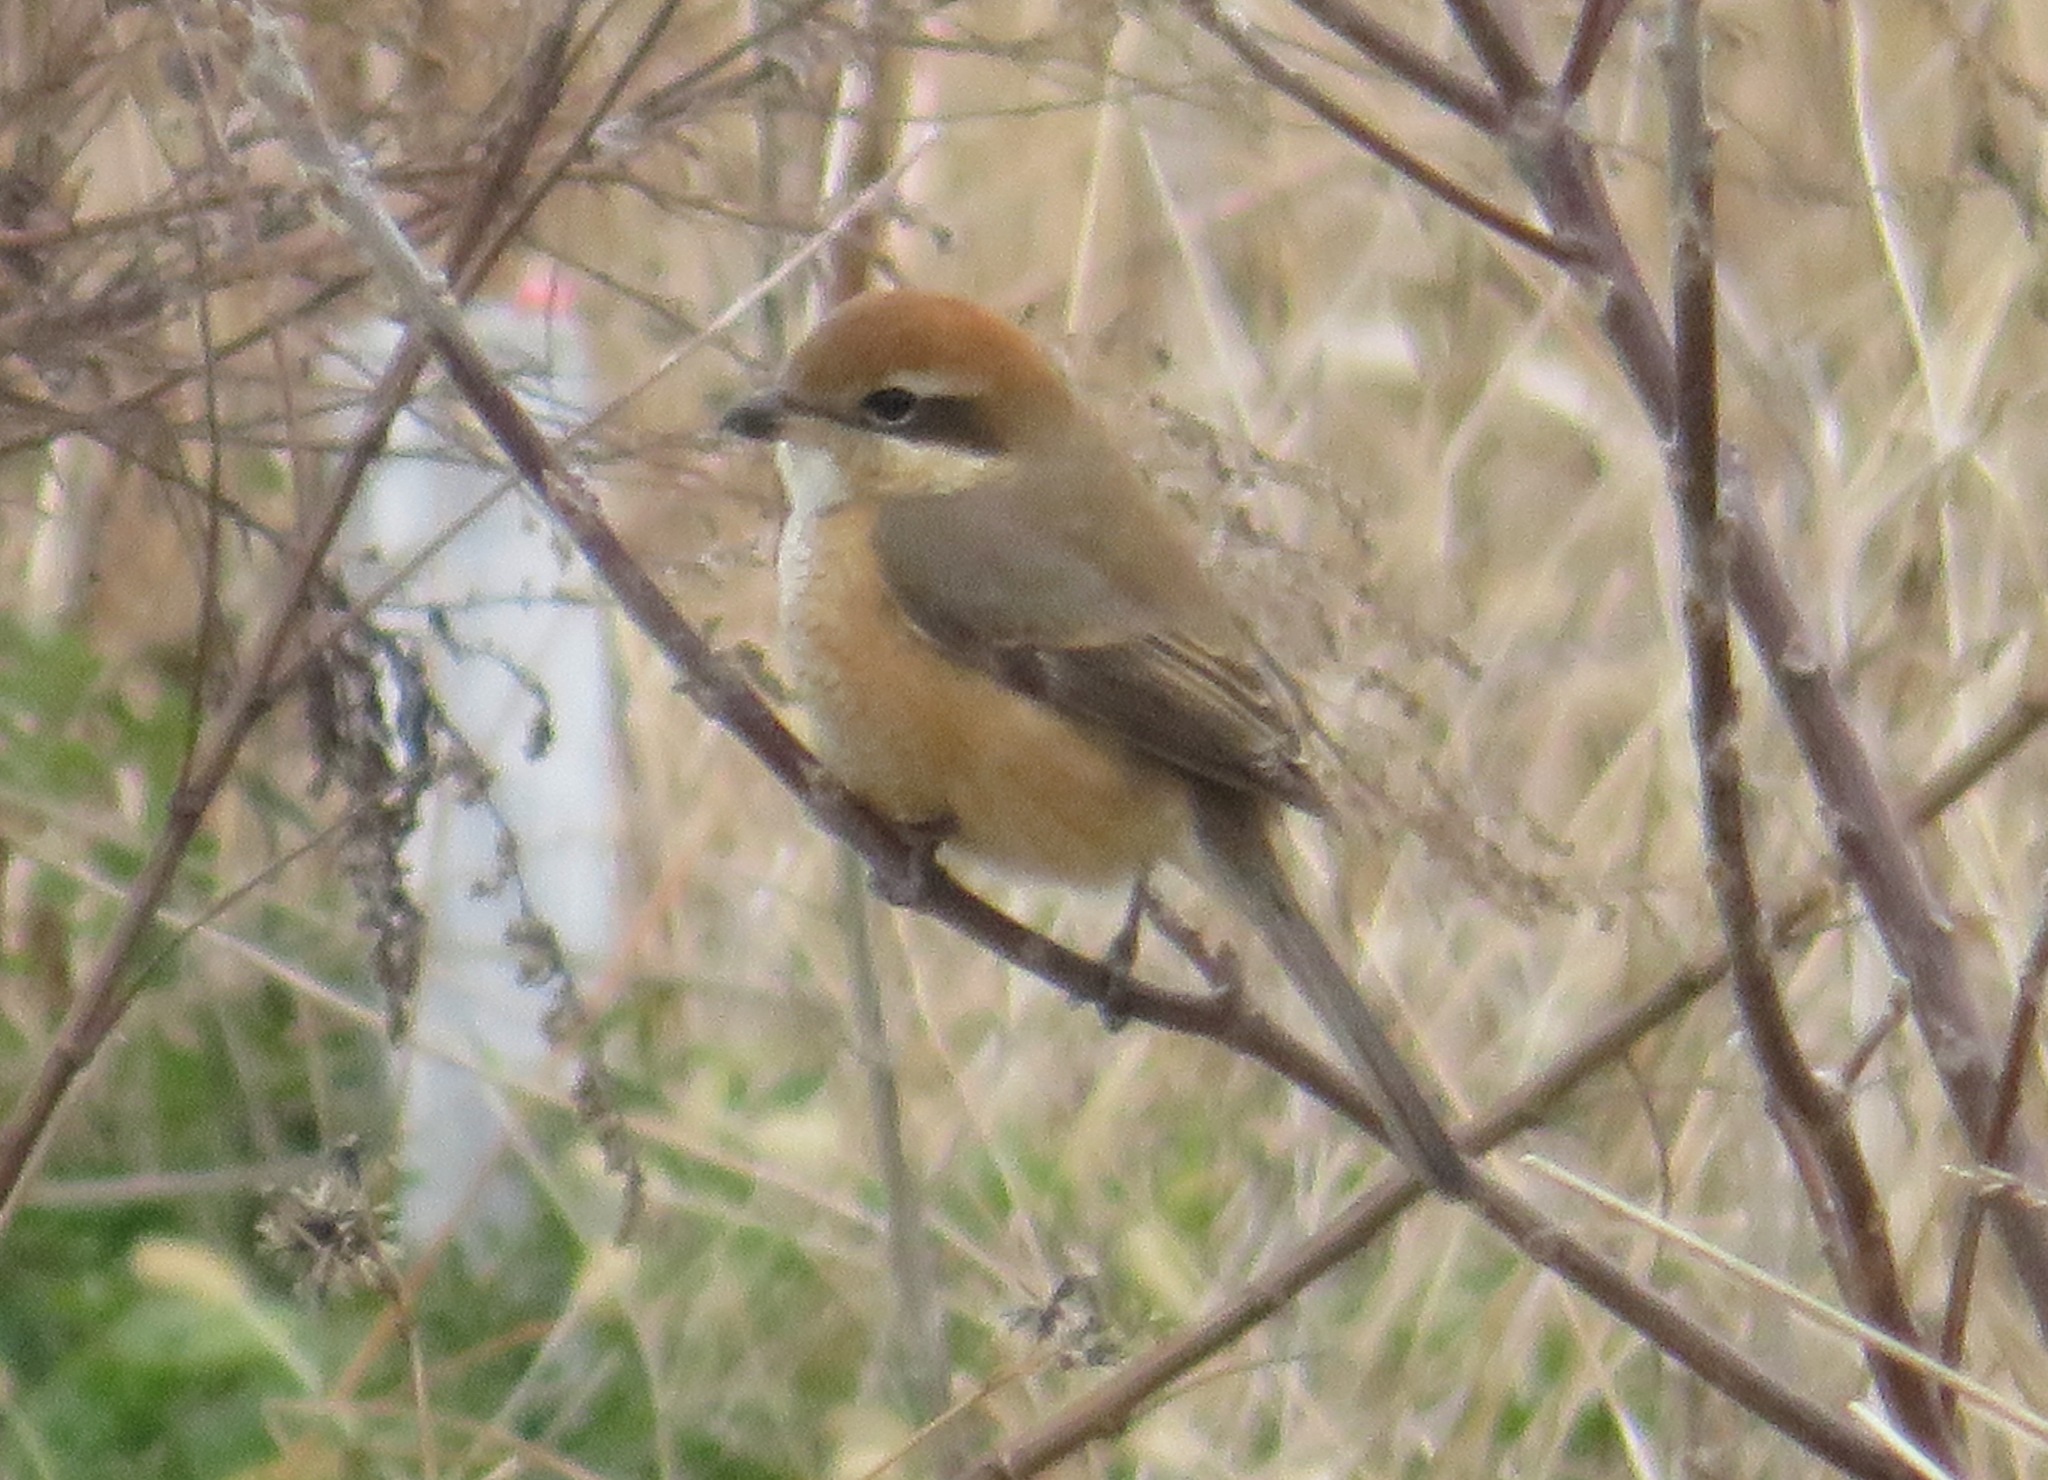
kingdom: Animalia
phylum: Chordata
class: Aves
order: Passeriformes
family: Laniidae
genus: Lanius
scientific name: Lanius bucephalus
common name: Bull-headed shrike
